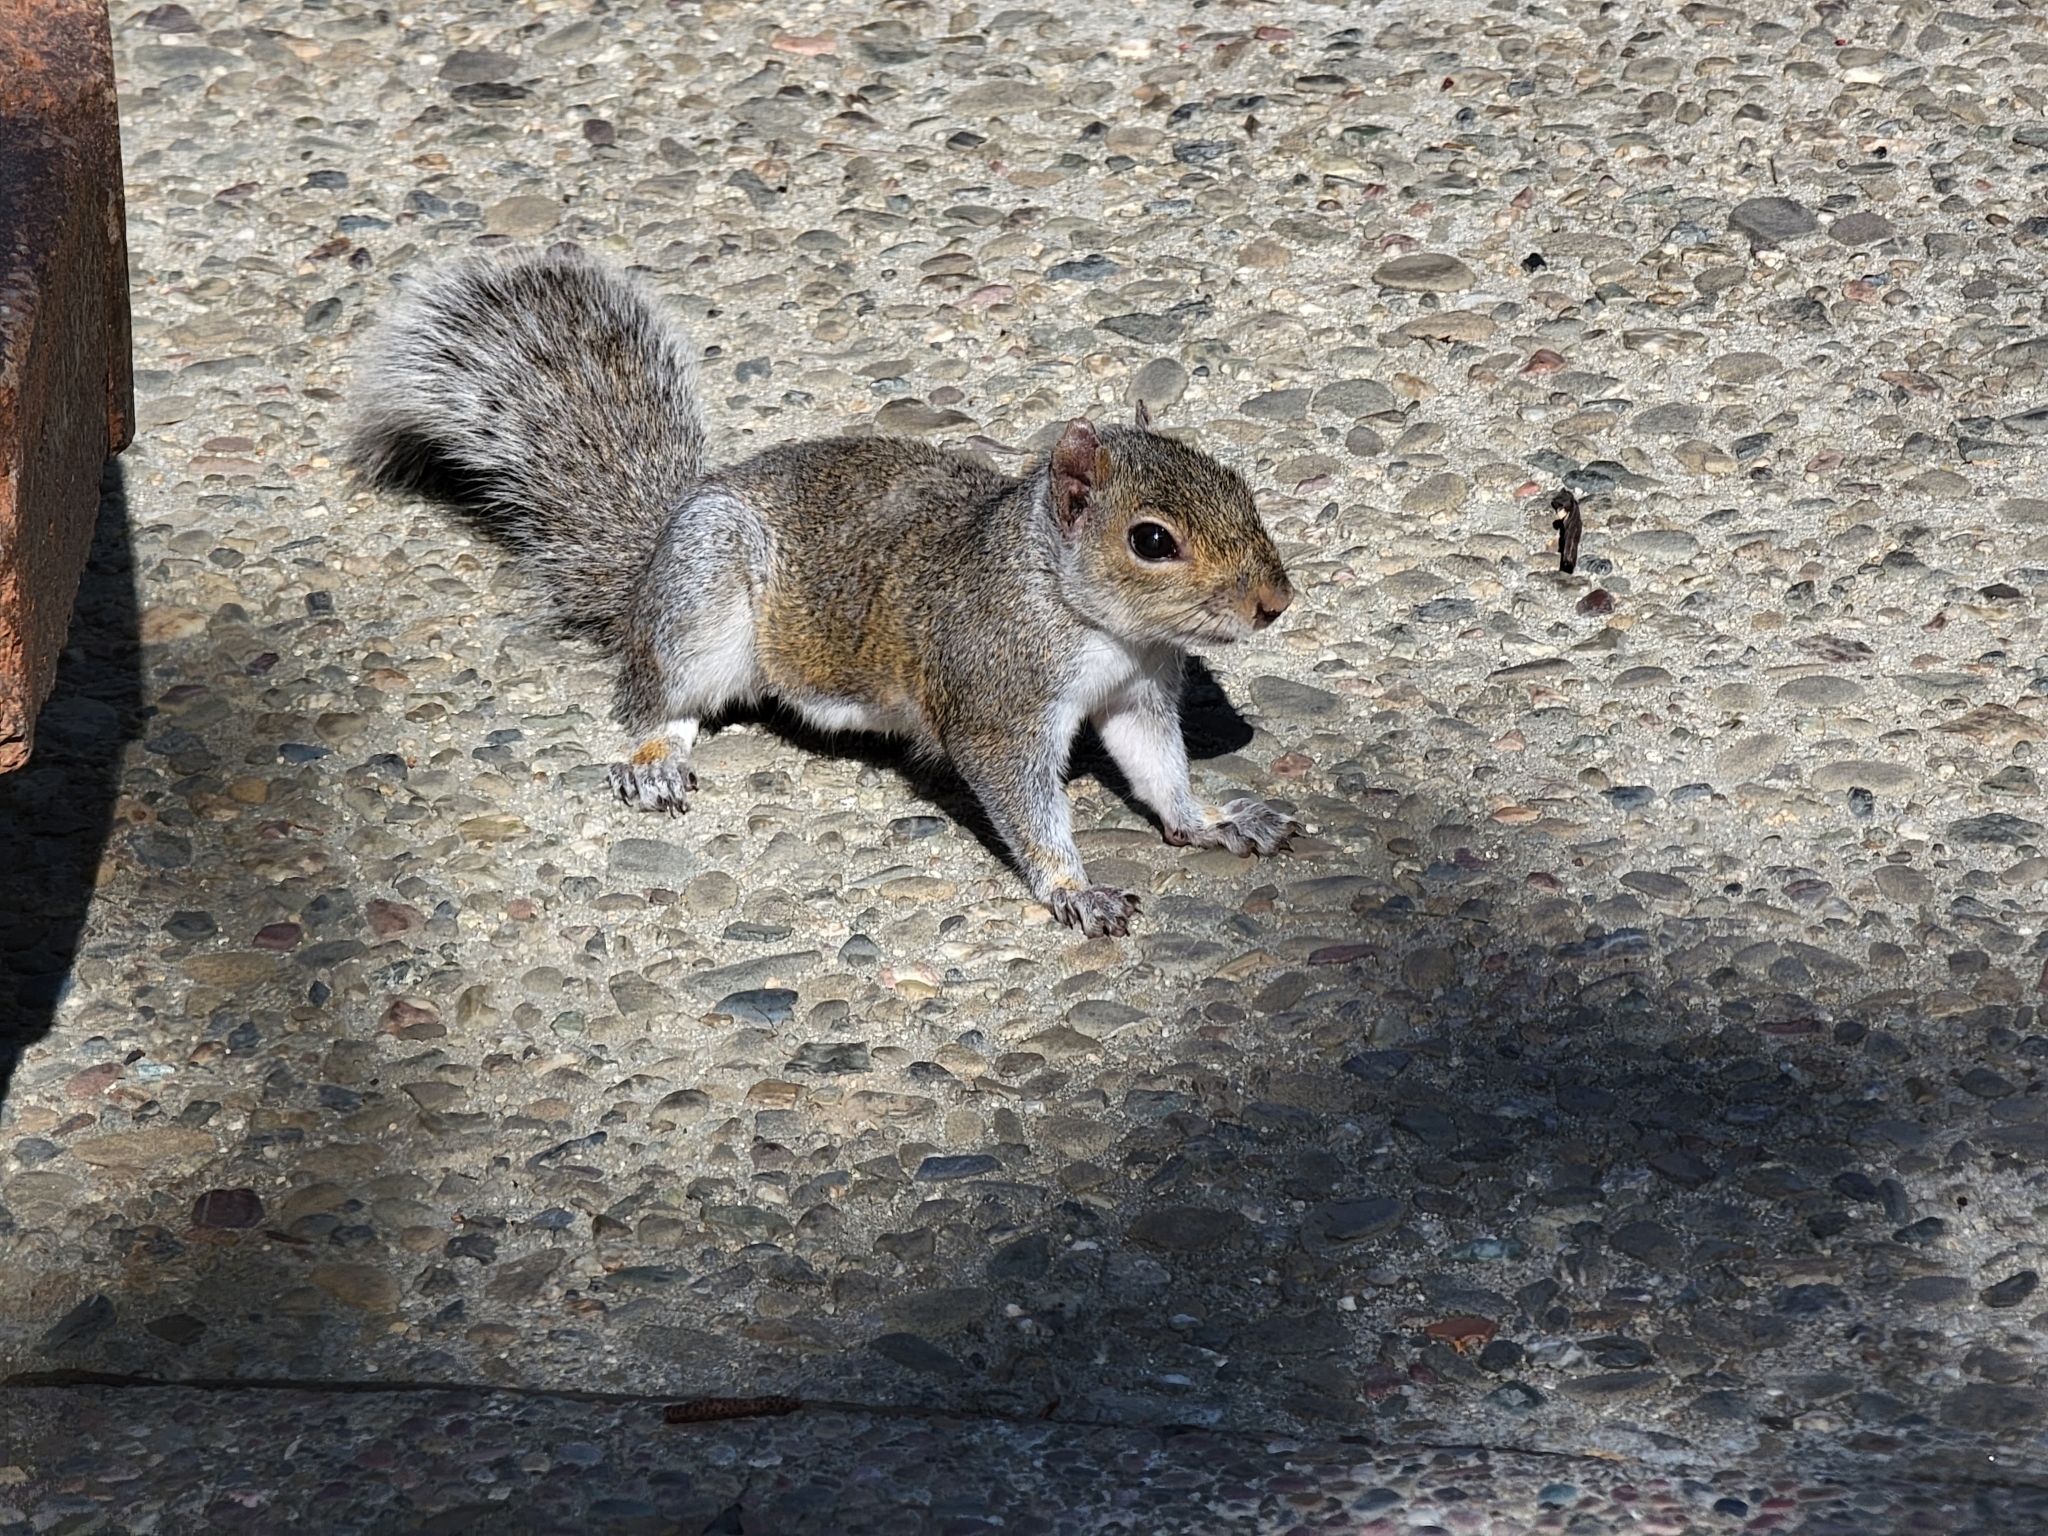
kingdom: Animalia
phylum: Chordata
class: Mammalia
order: Rodentia
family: Sciuridae
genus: Sciurus
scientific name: Sciurus carolinensis
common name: Eastern gray squirrel
